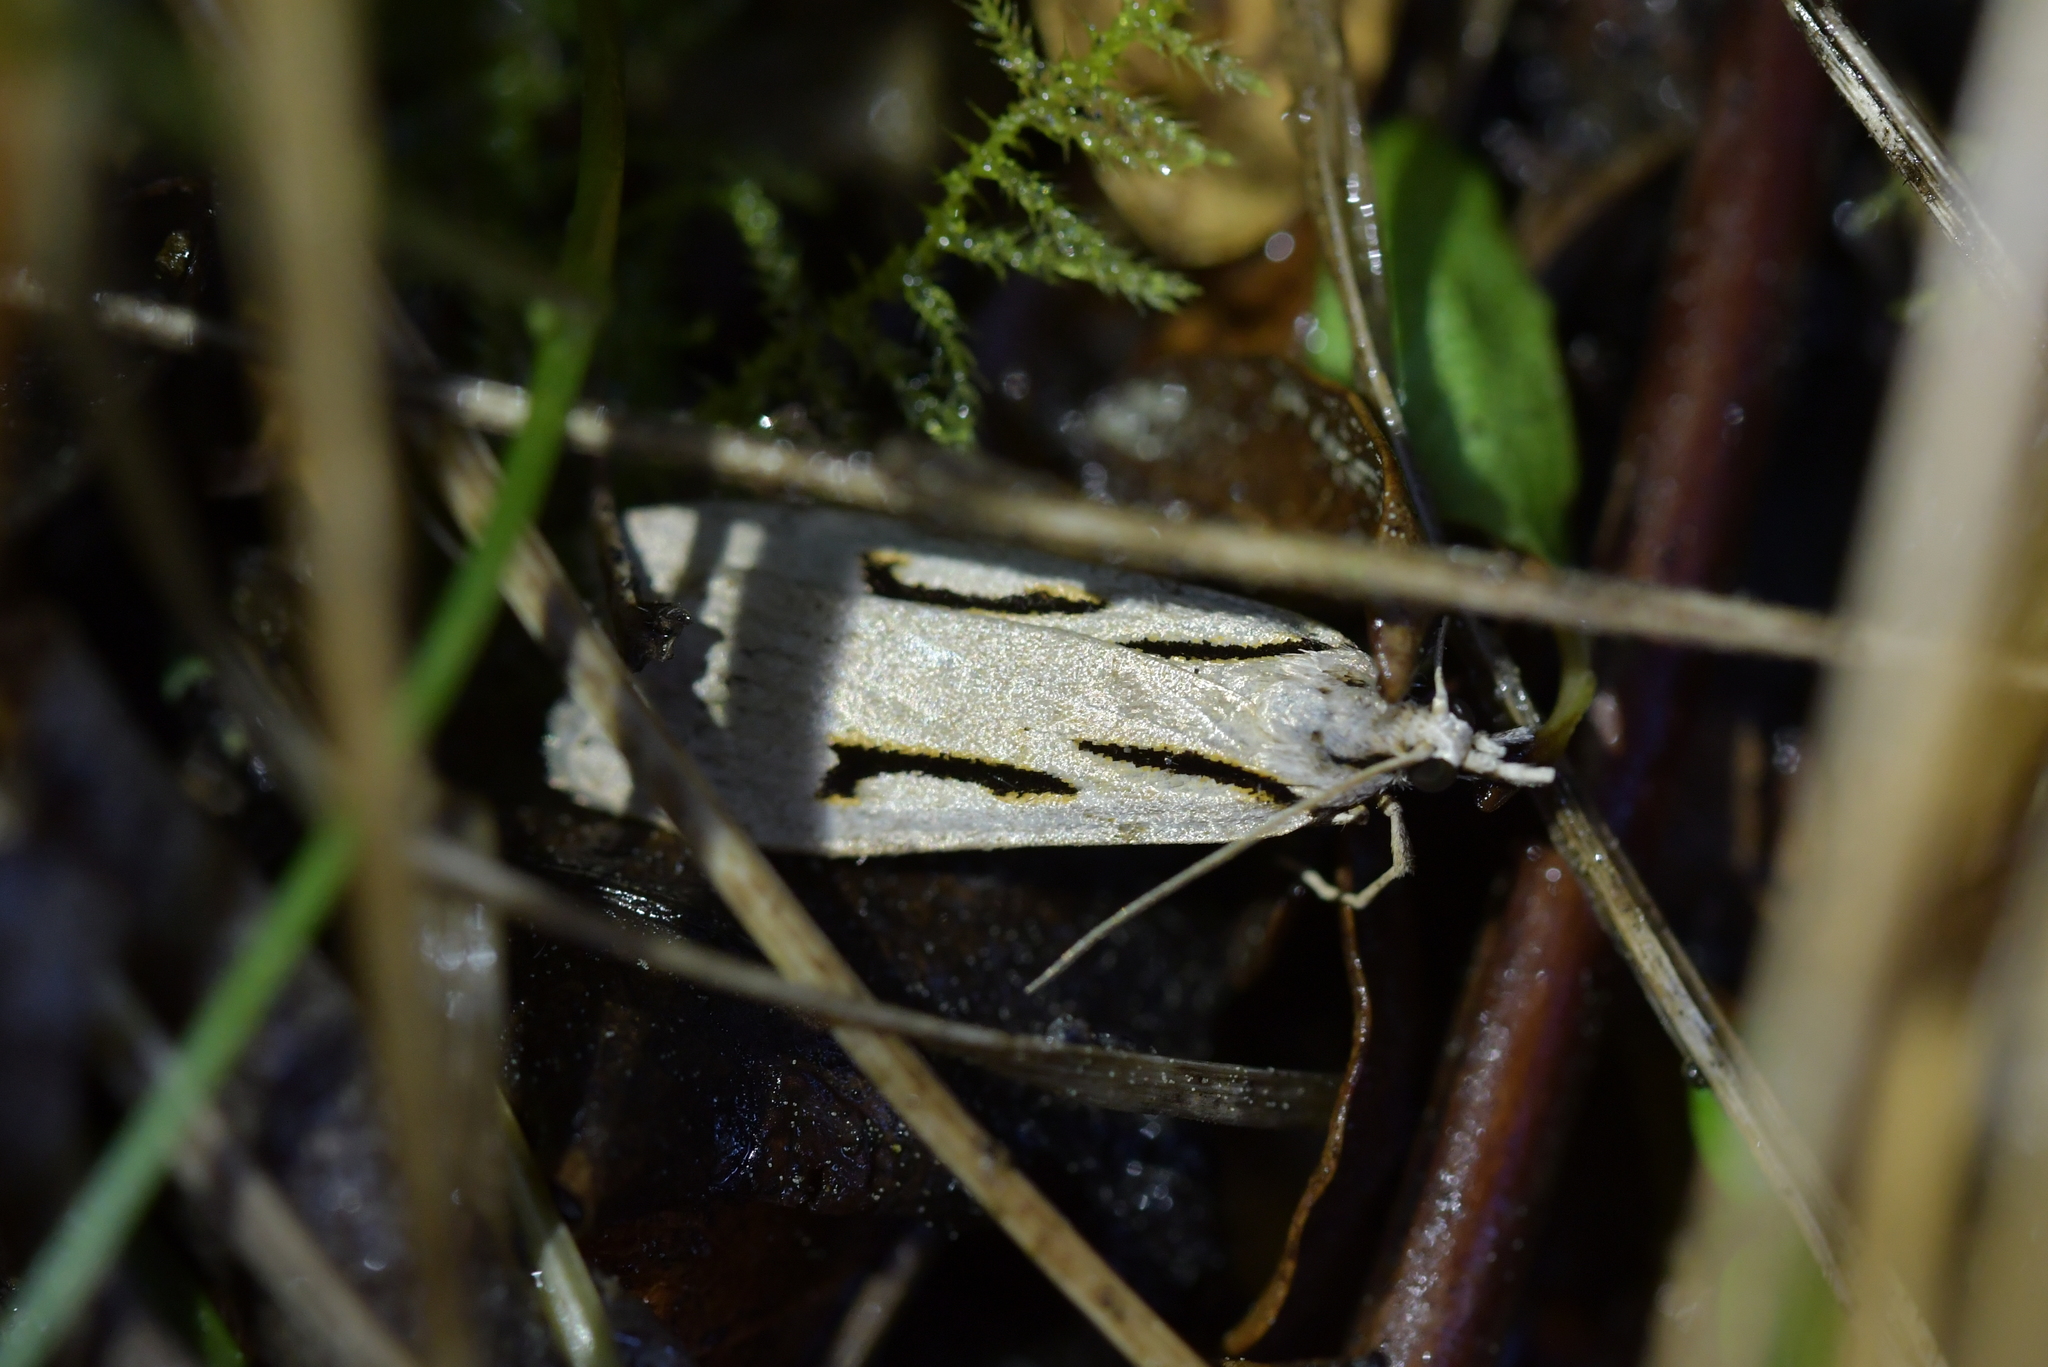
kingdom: Animalia
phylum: Arthropoda
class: Insecta
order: Lepidoptera
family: Crambidae
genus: Scoparia
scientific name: Scoparia rotuellus
